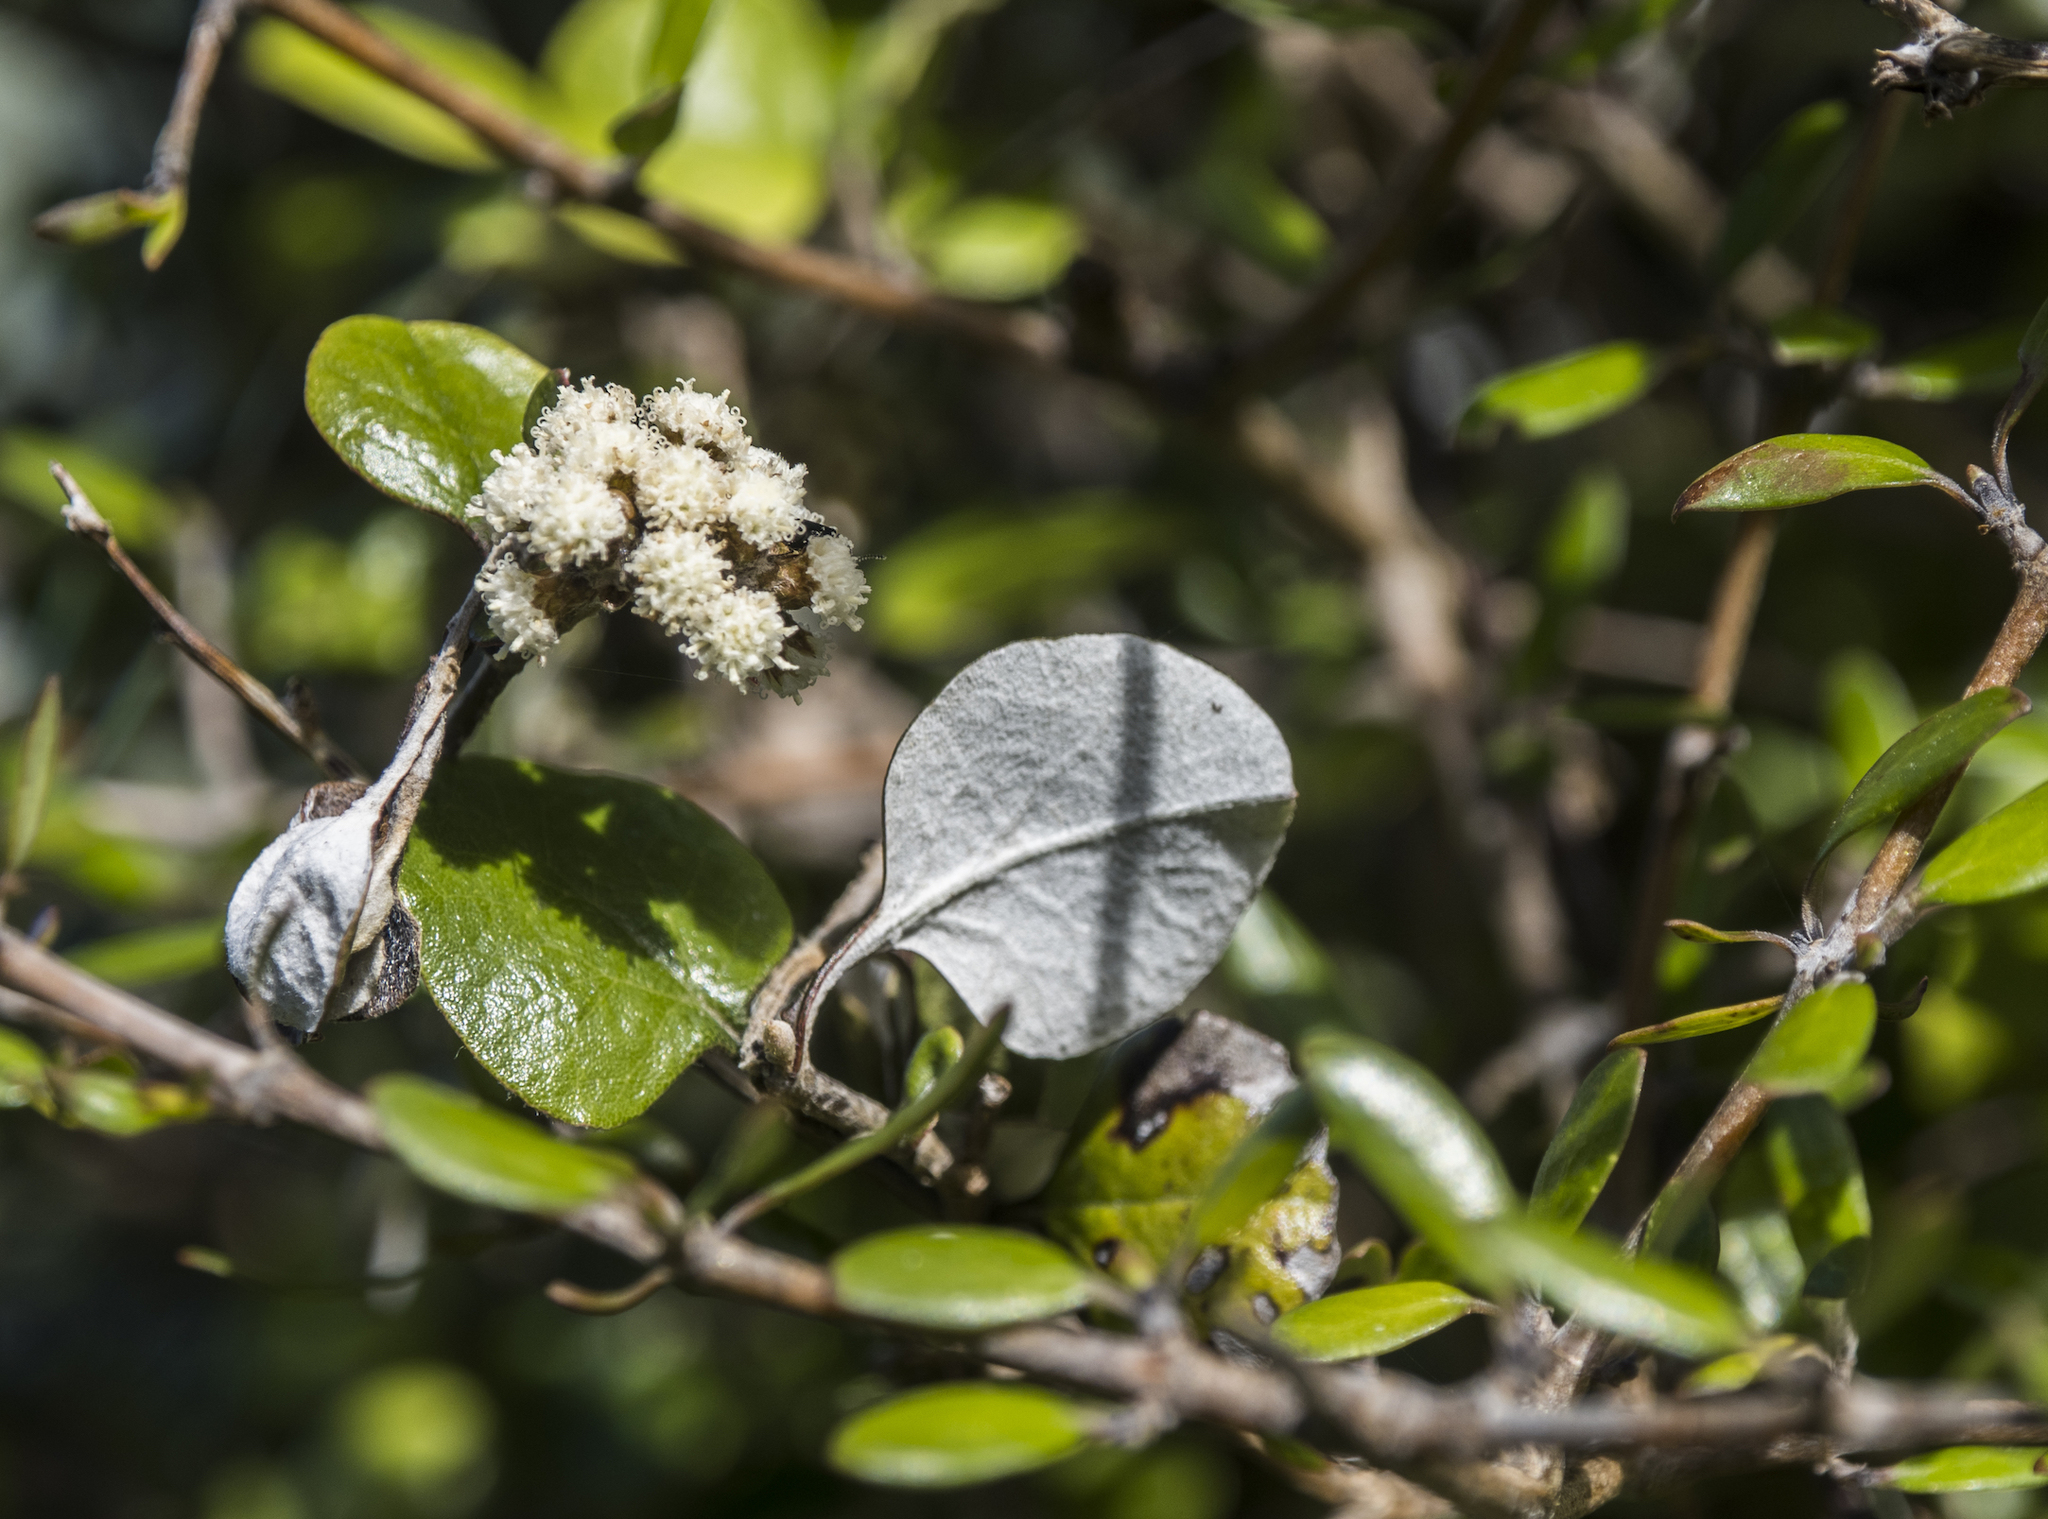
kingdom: Plantae
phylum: Tracheophyta
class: Magnoliopsida
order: Asterales
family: Asteraceae
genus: Ozothamnus
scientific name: Ozothamnus glomeratus
